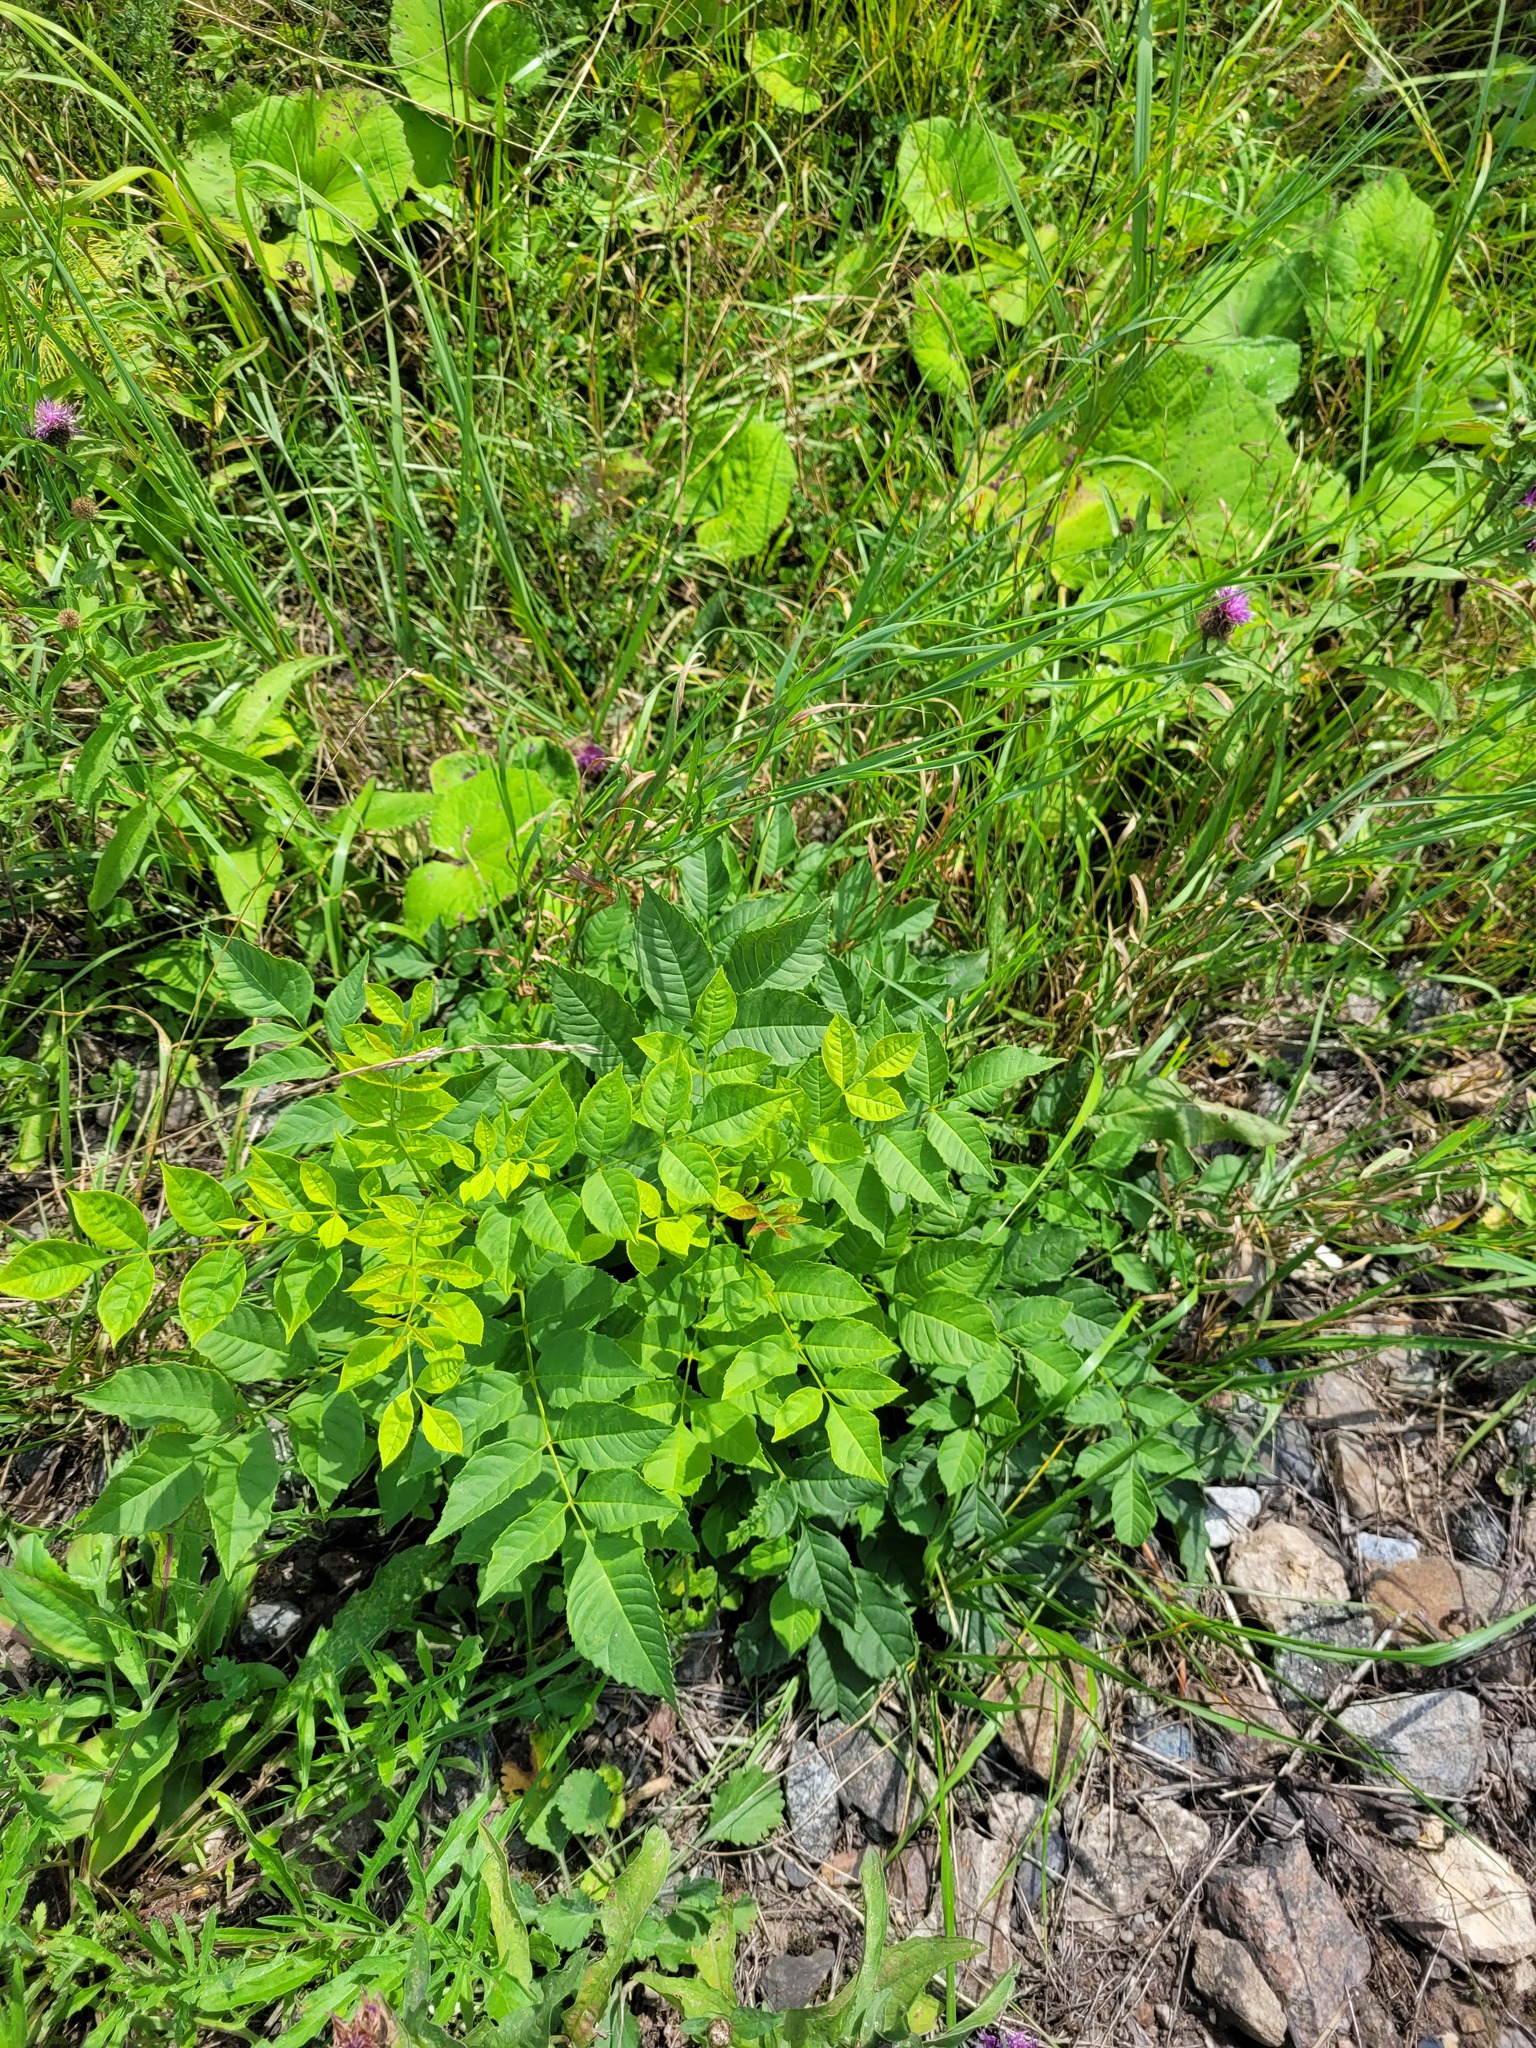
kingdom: Plantae
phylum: Tracheophyta
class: Magnoliopsida
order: Lamiales
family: Oleaceae
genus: Fraxinus
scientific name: Fraxinus excelsior
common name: European ash
